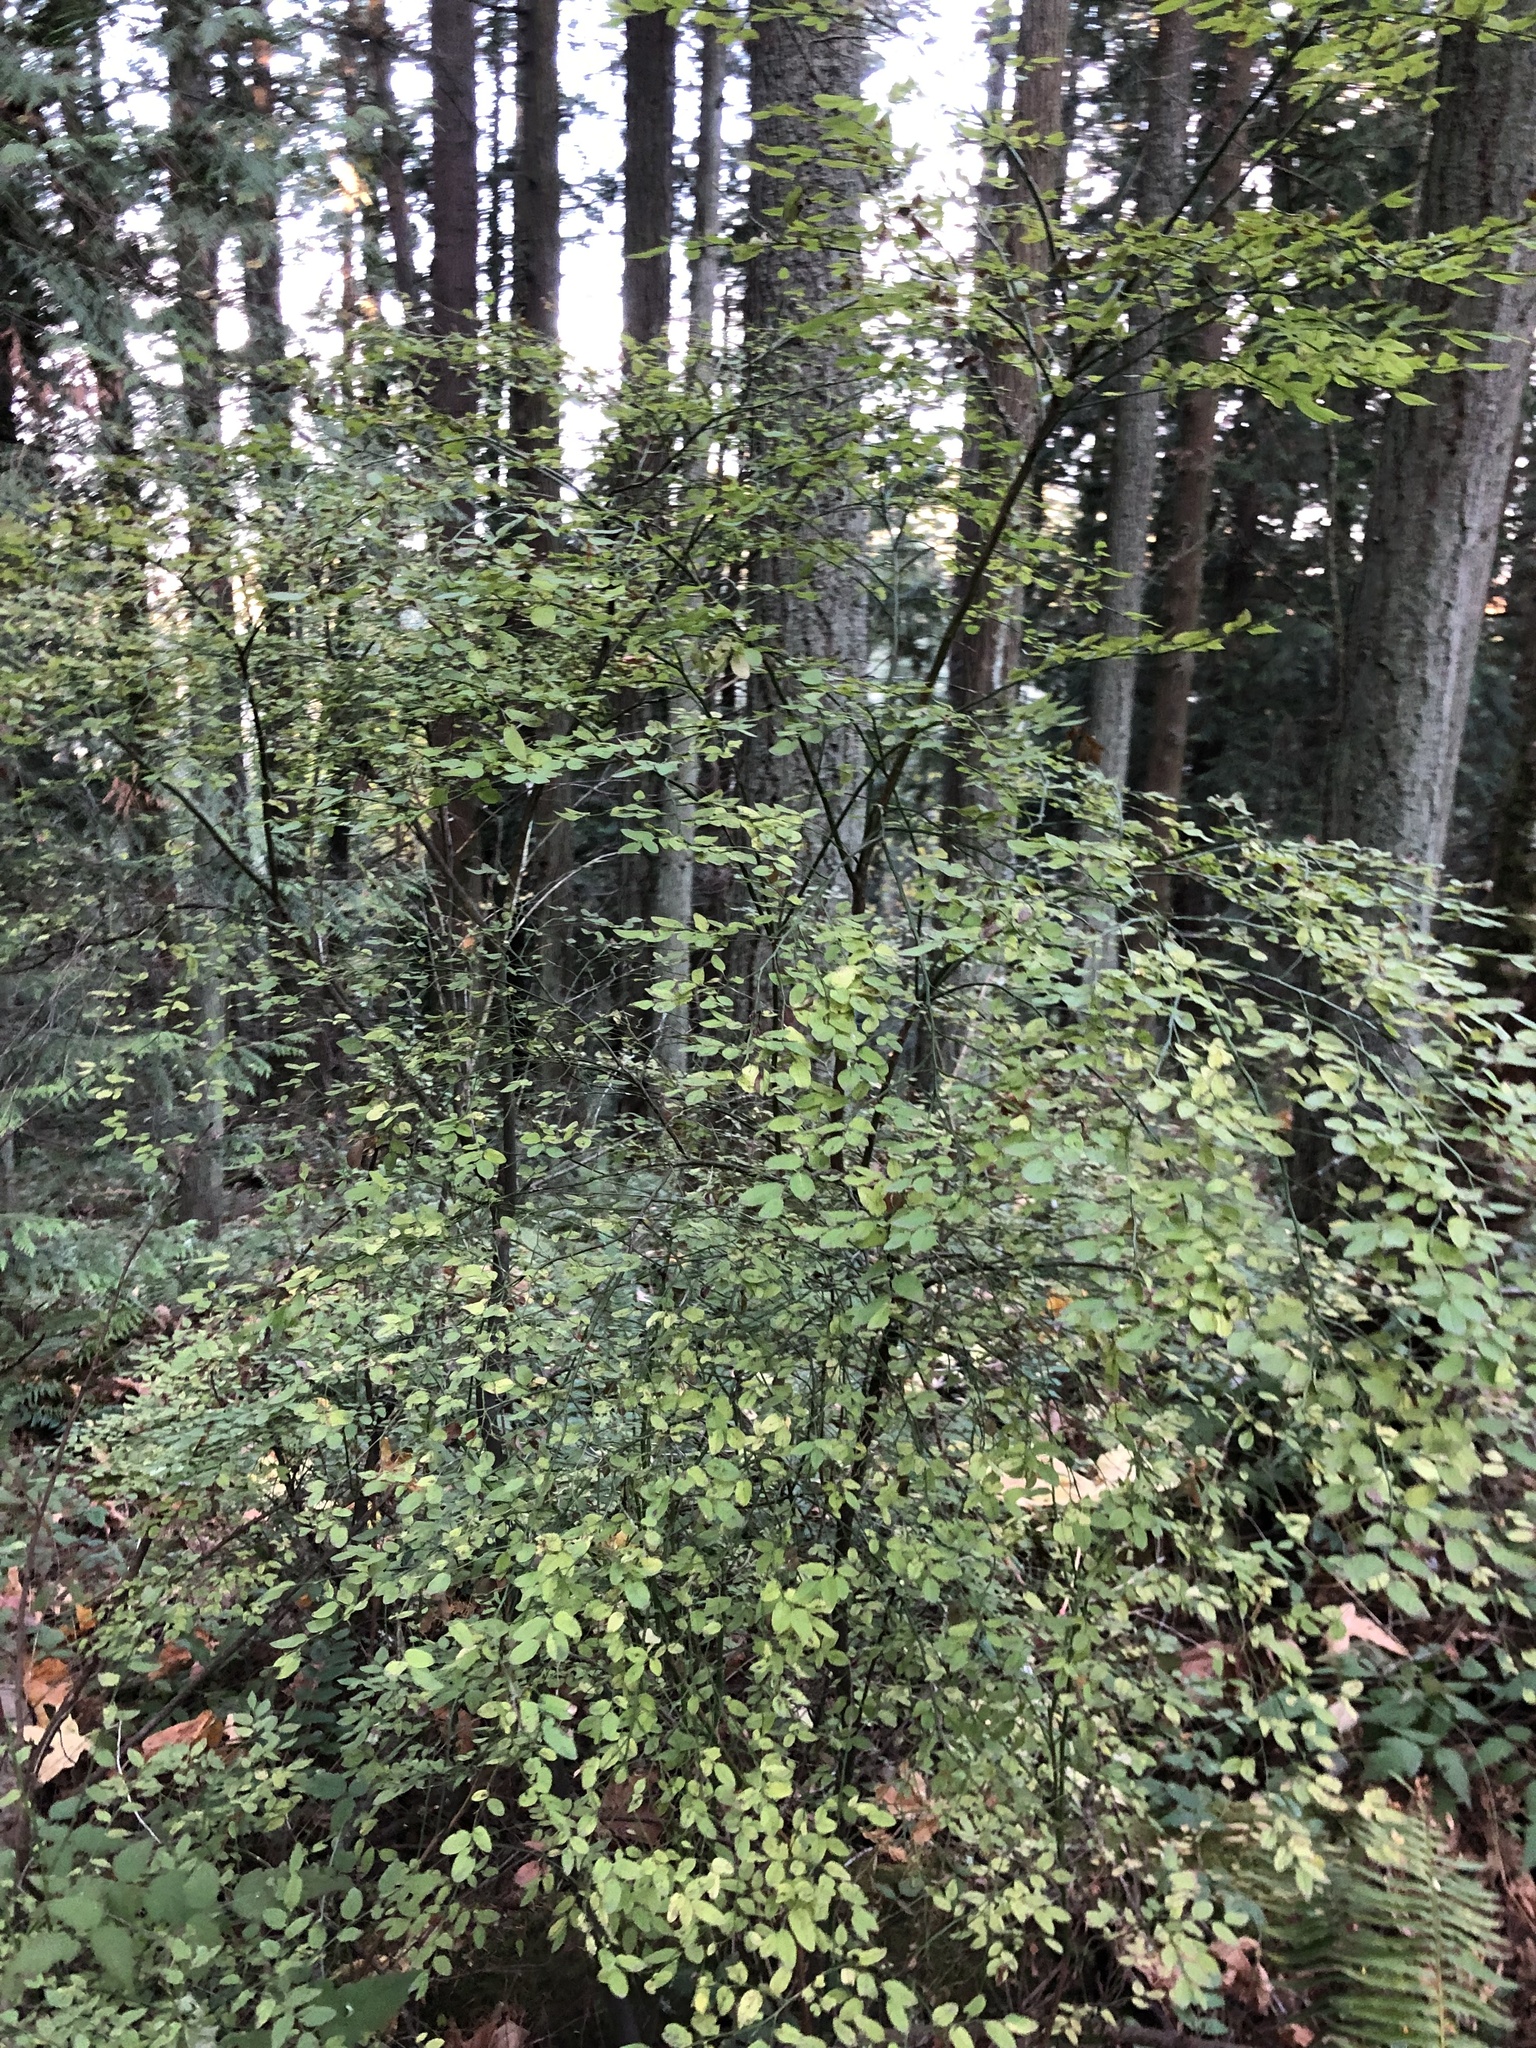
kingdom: Plantae
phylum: Tracheophyta
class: Magnoliopsida
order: Ericales
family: Ericaceae
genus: Vaccinium
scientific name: Vaccinium parvifolium
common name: Red-huckleberry
